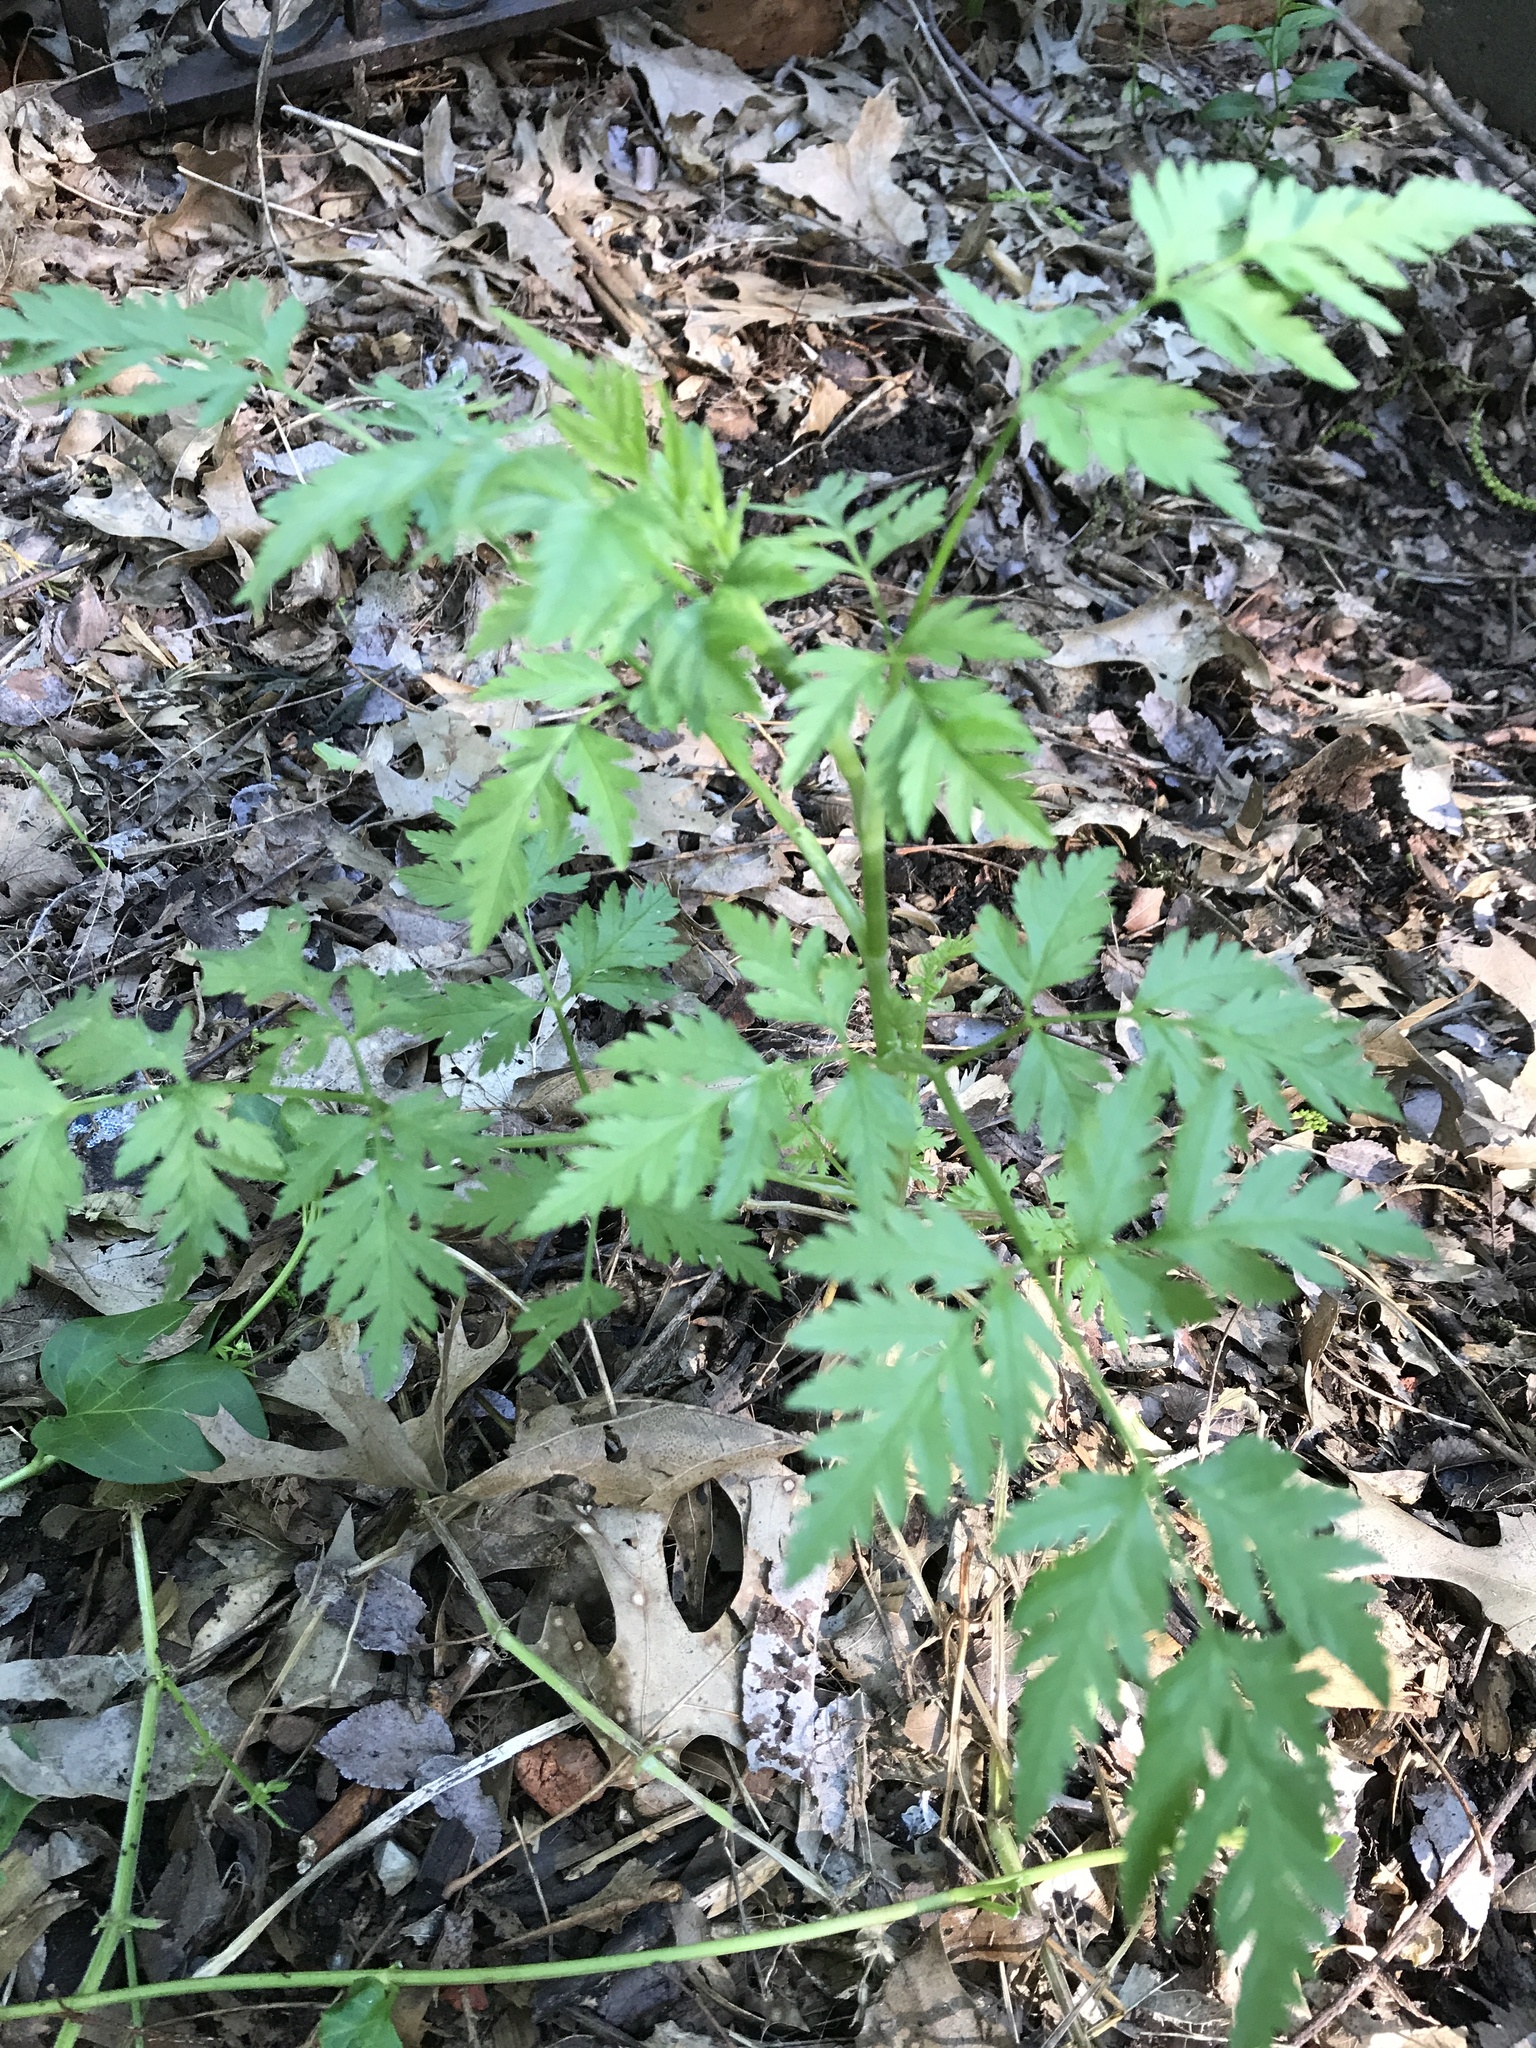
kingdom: Plantae
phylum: Tracheophyta
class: Magnoliopsida
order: Apiales
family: Apiaceae
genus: Torilis
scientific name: Torilis arvensis
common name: Spreading hedge-parsley
